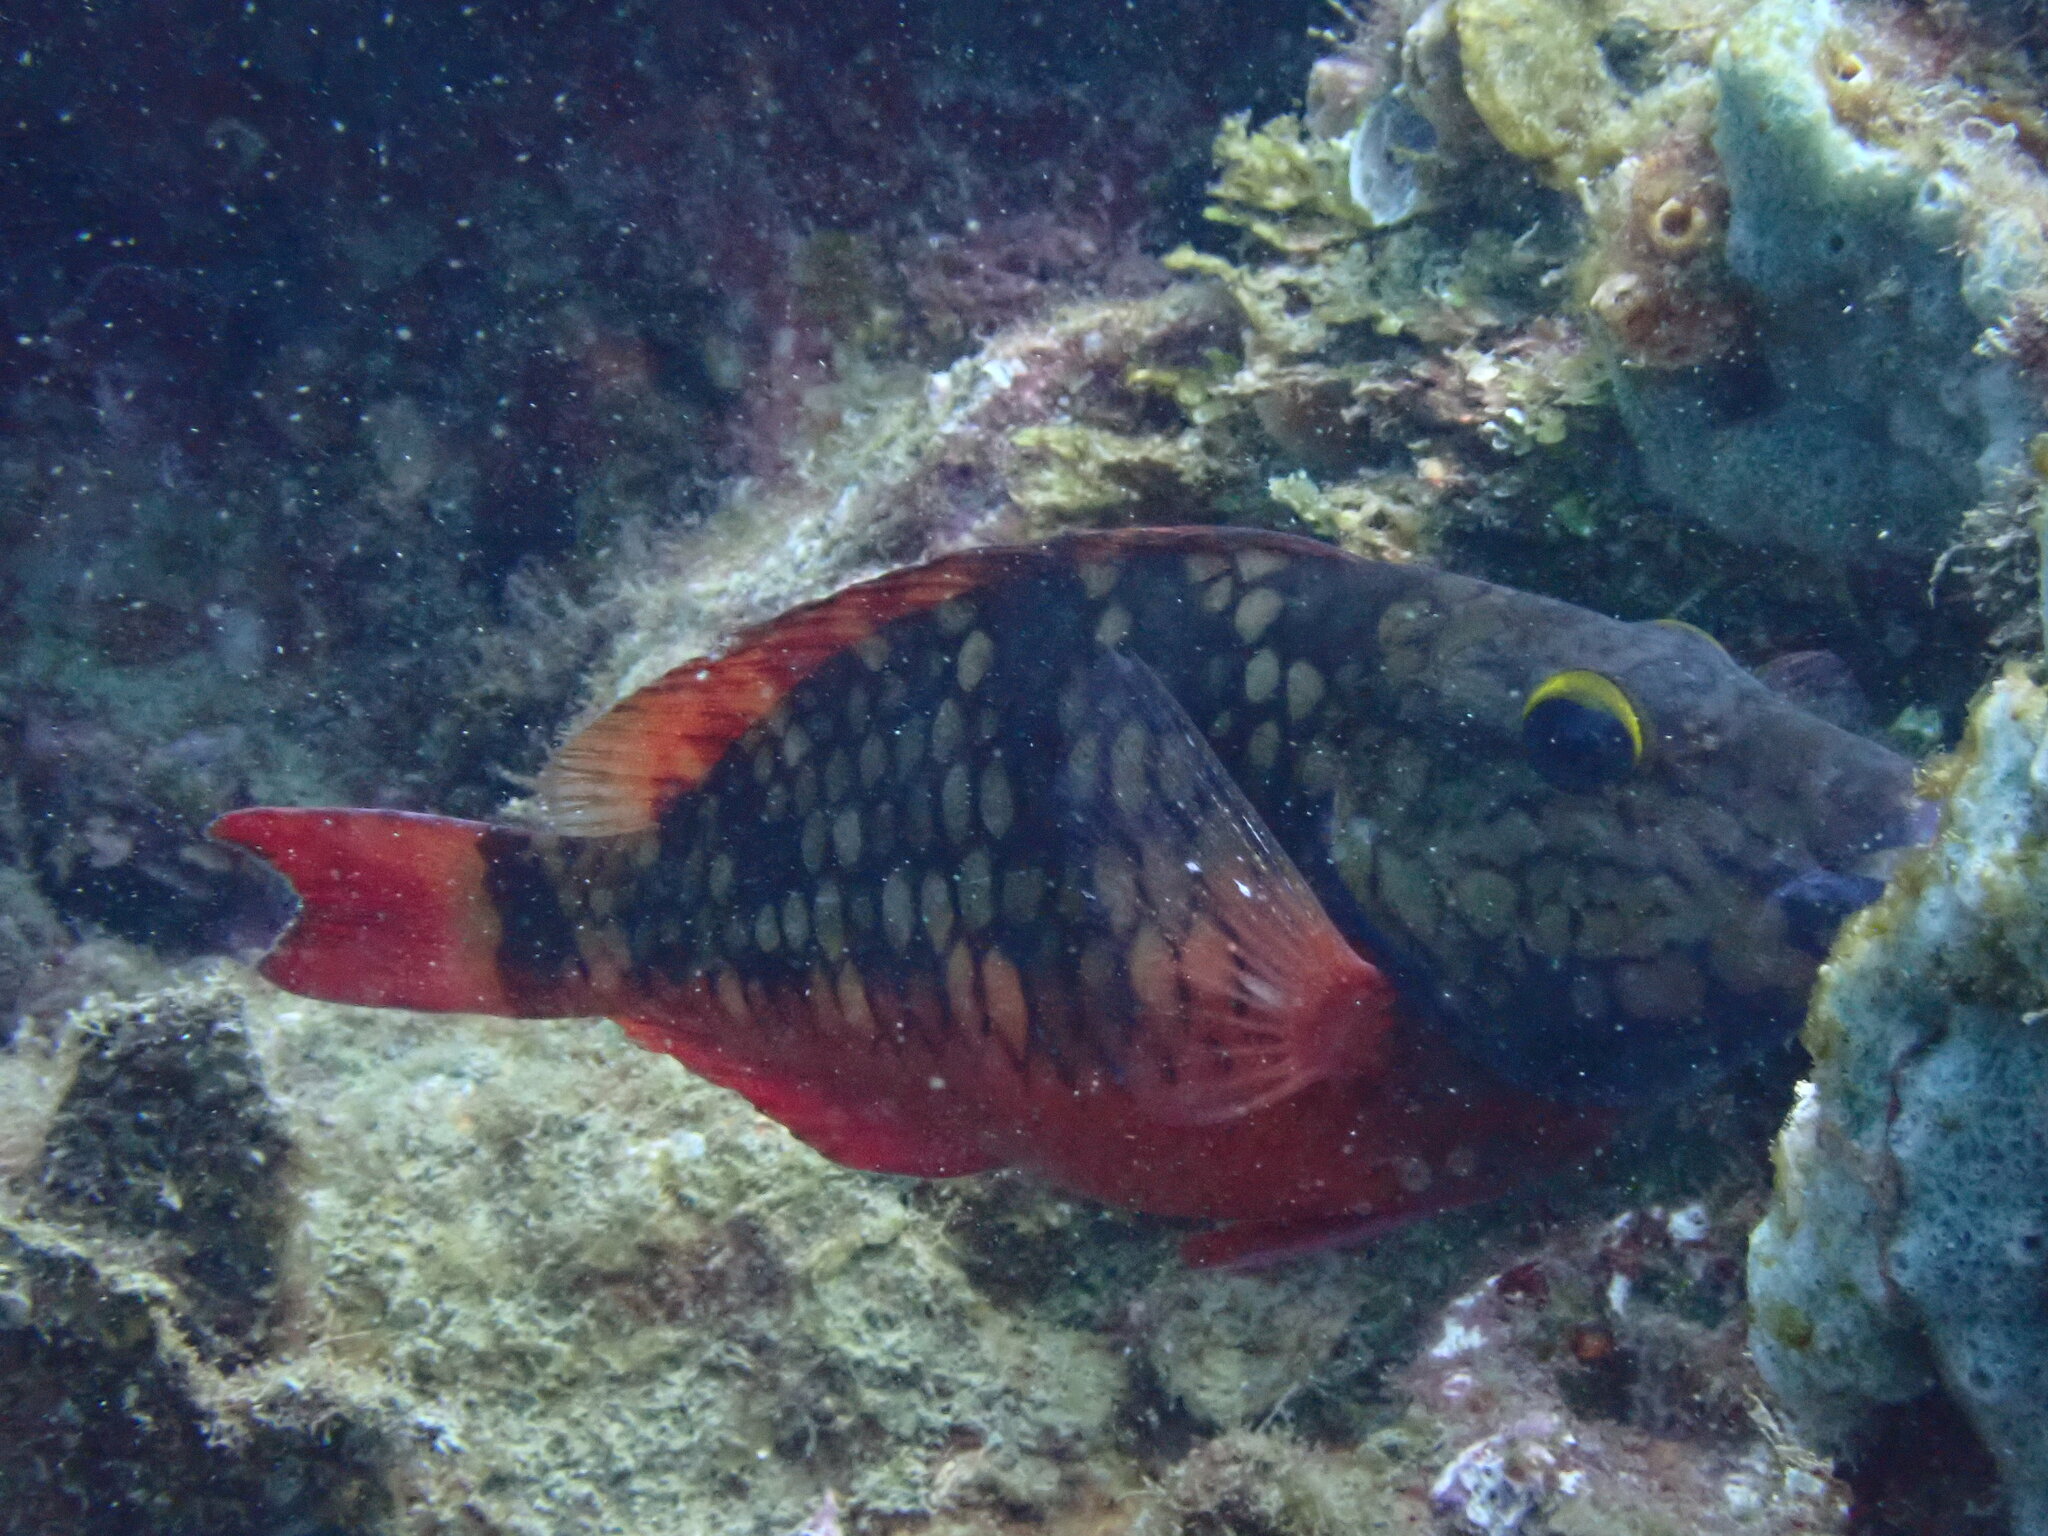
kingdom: Animalia
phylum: Chordata
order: Perciformes
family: Scaridae
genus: Sparisoma
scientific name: Sparisoma viride
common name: Stoplight parrotfish
